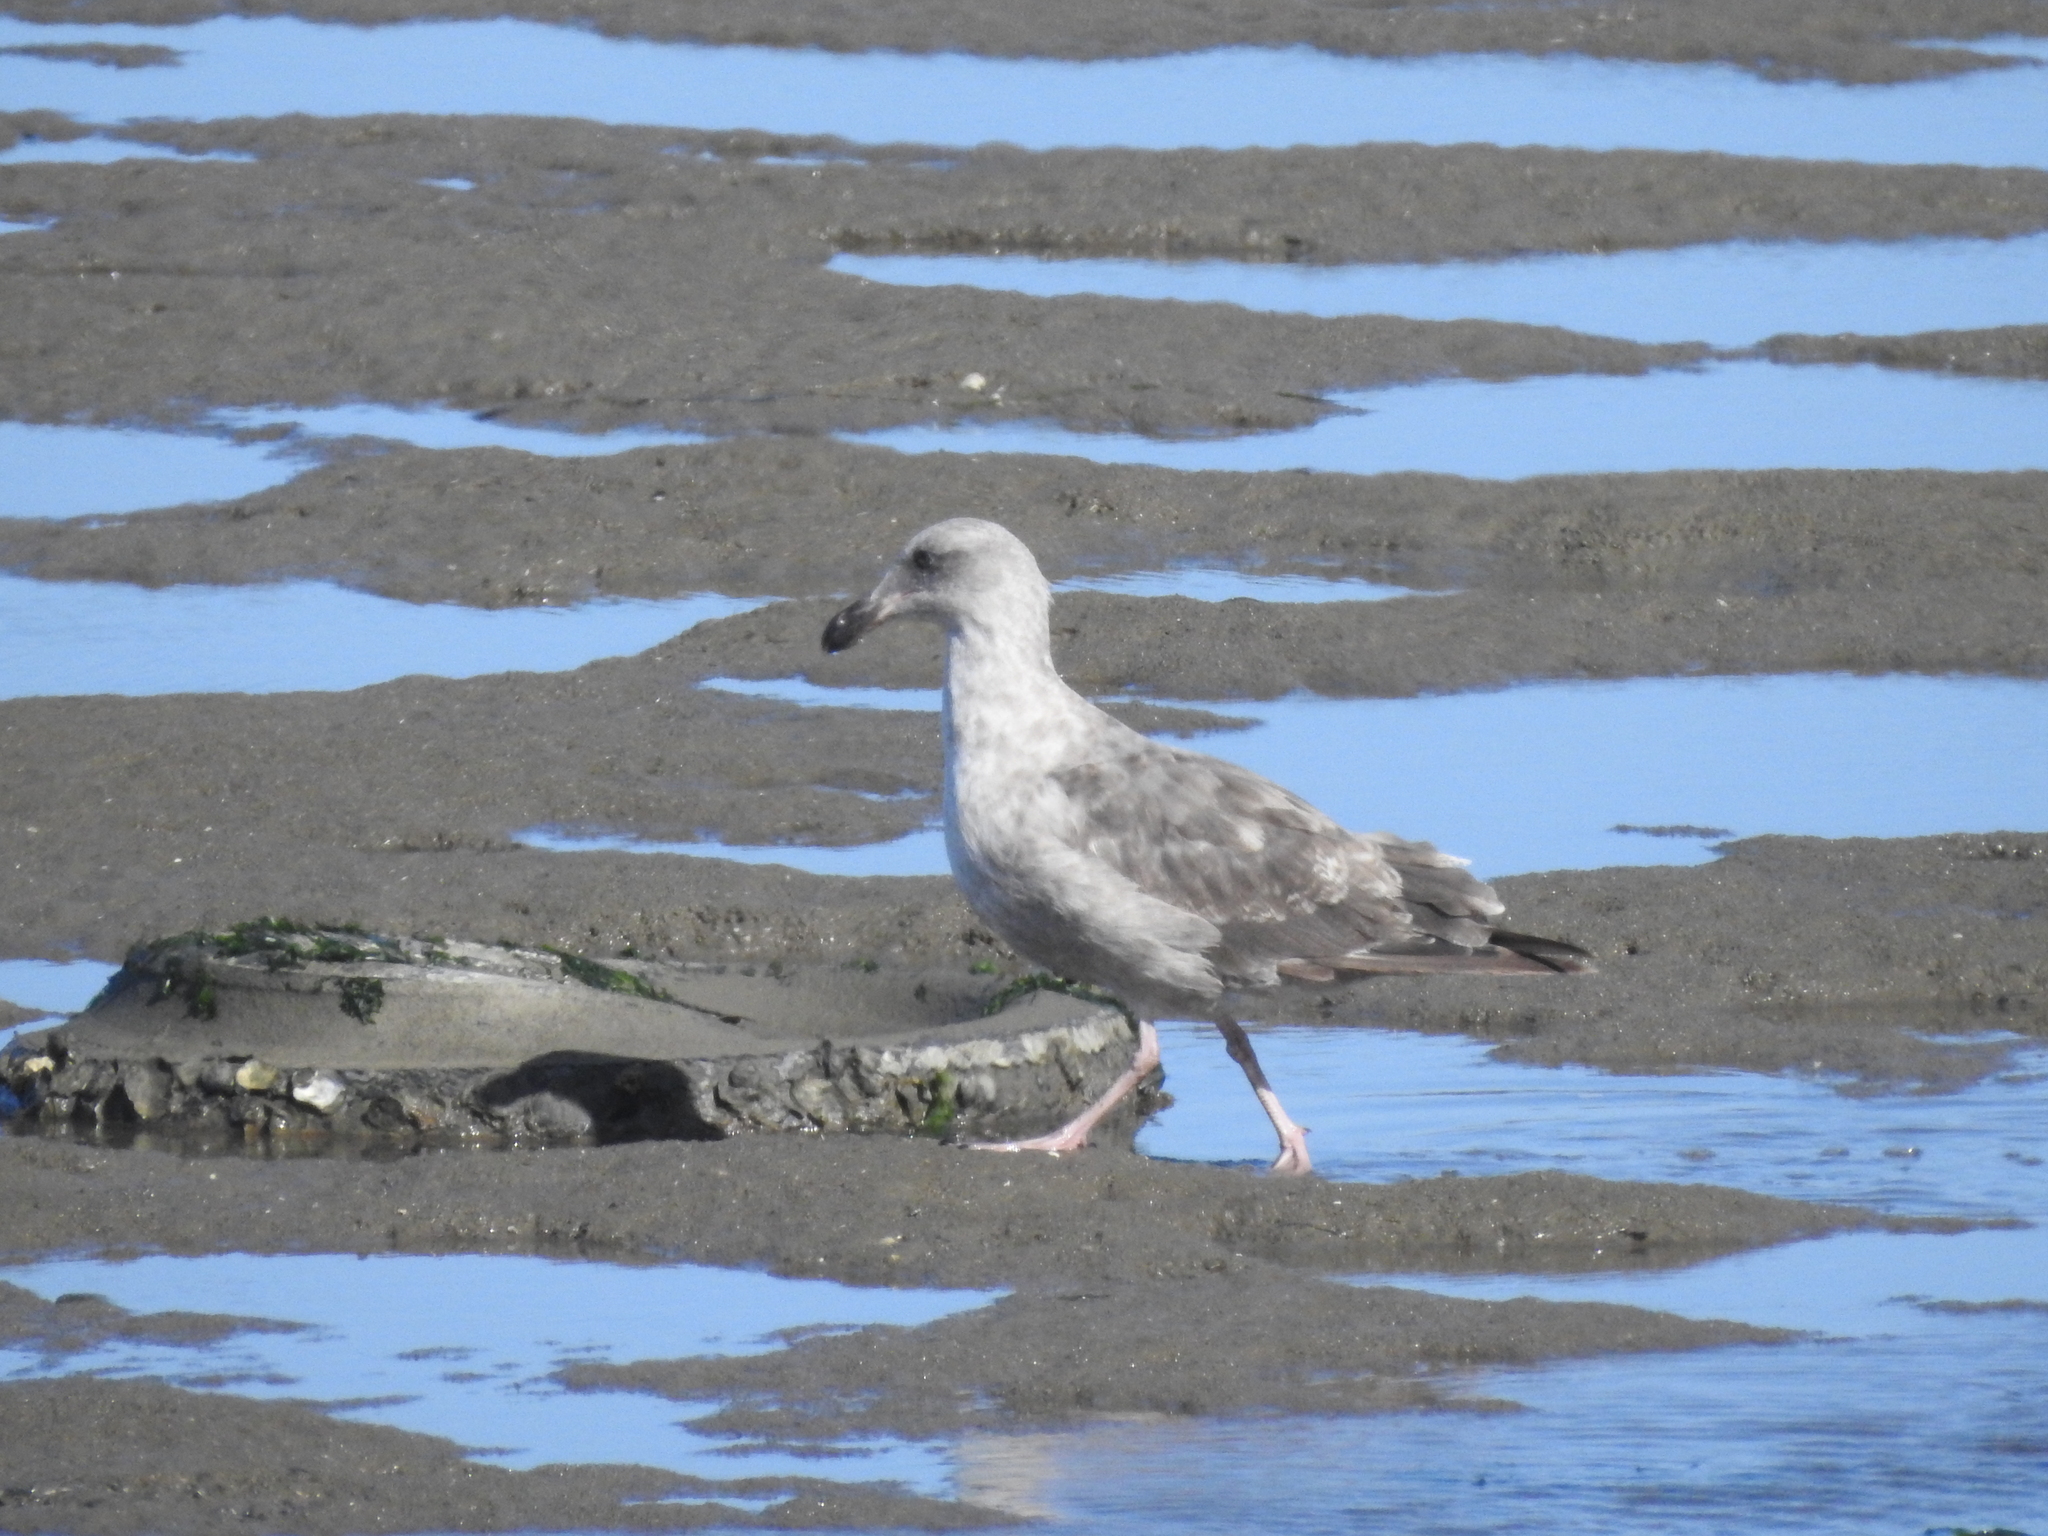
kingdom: Animalia
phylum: Chordata
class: Aves
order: Charadriiformes
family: Laridae
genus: Larus
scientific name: Larus occidentalis
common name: Western gull
